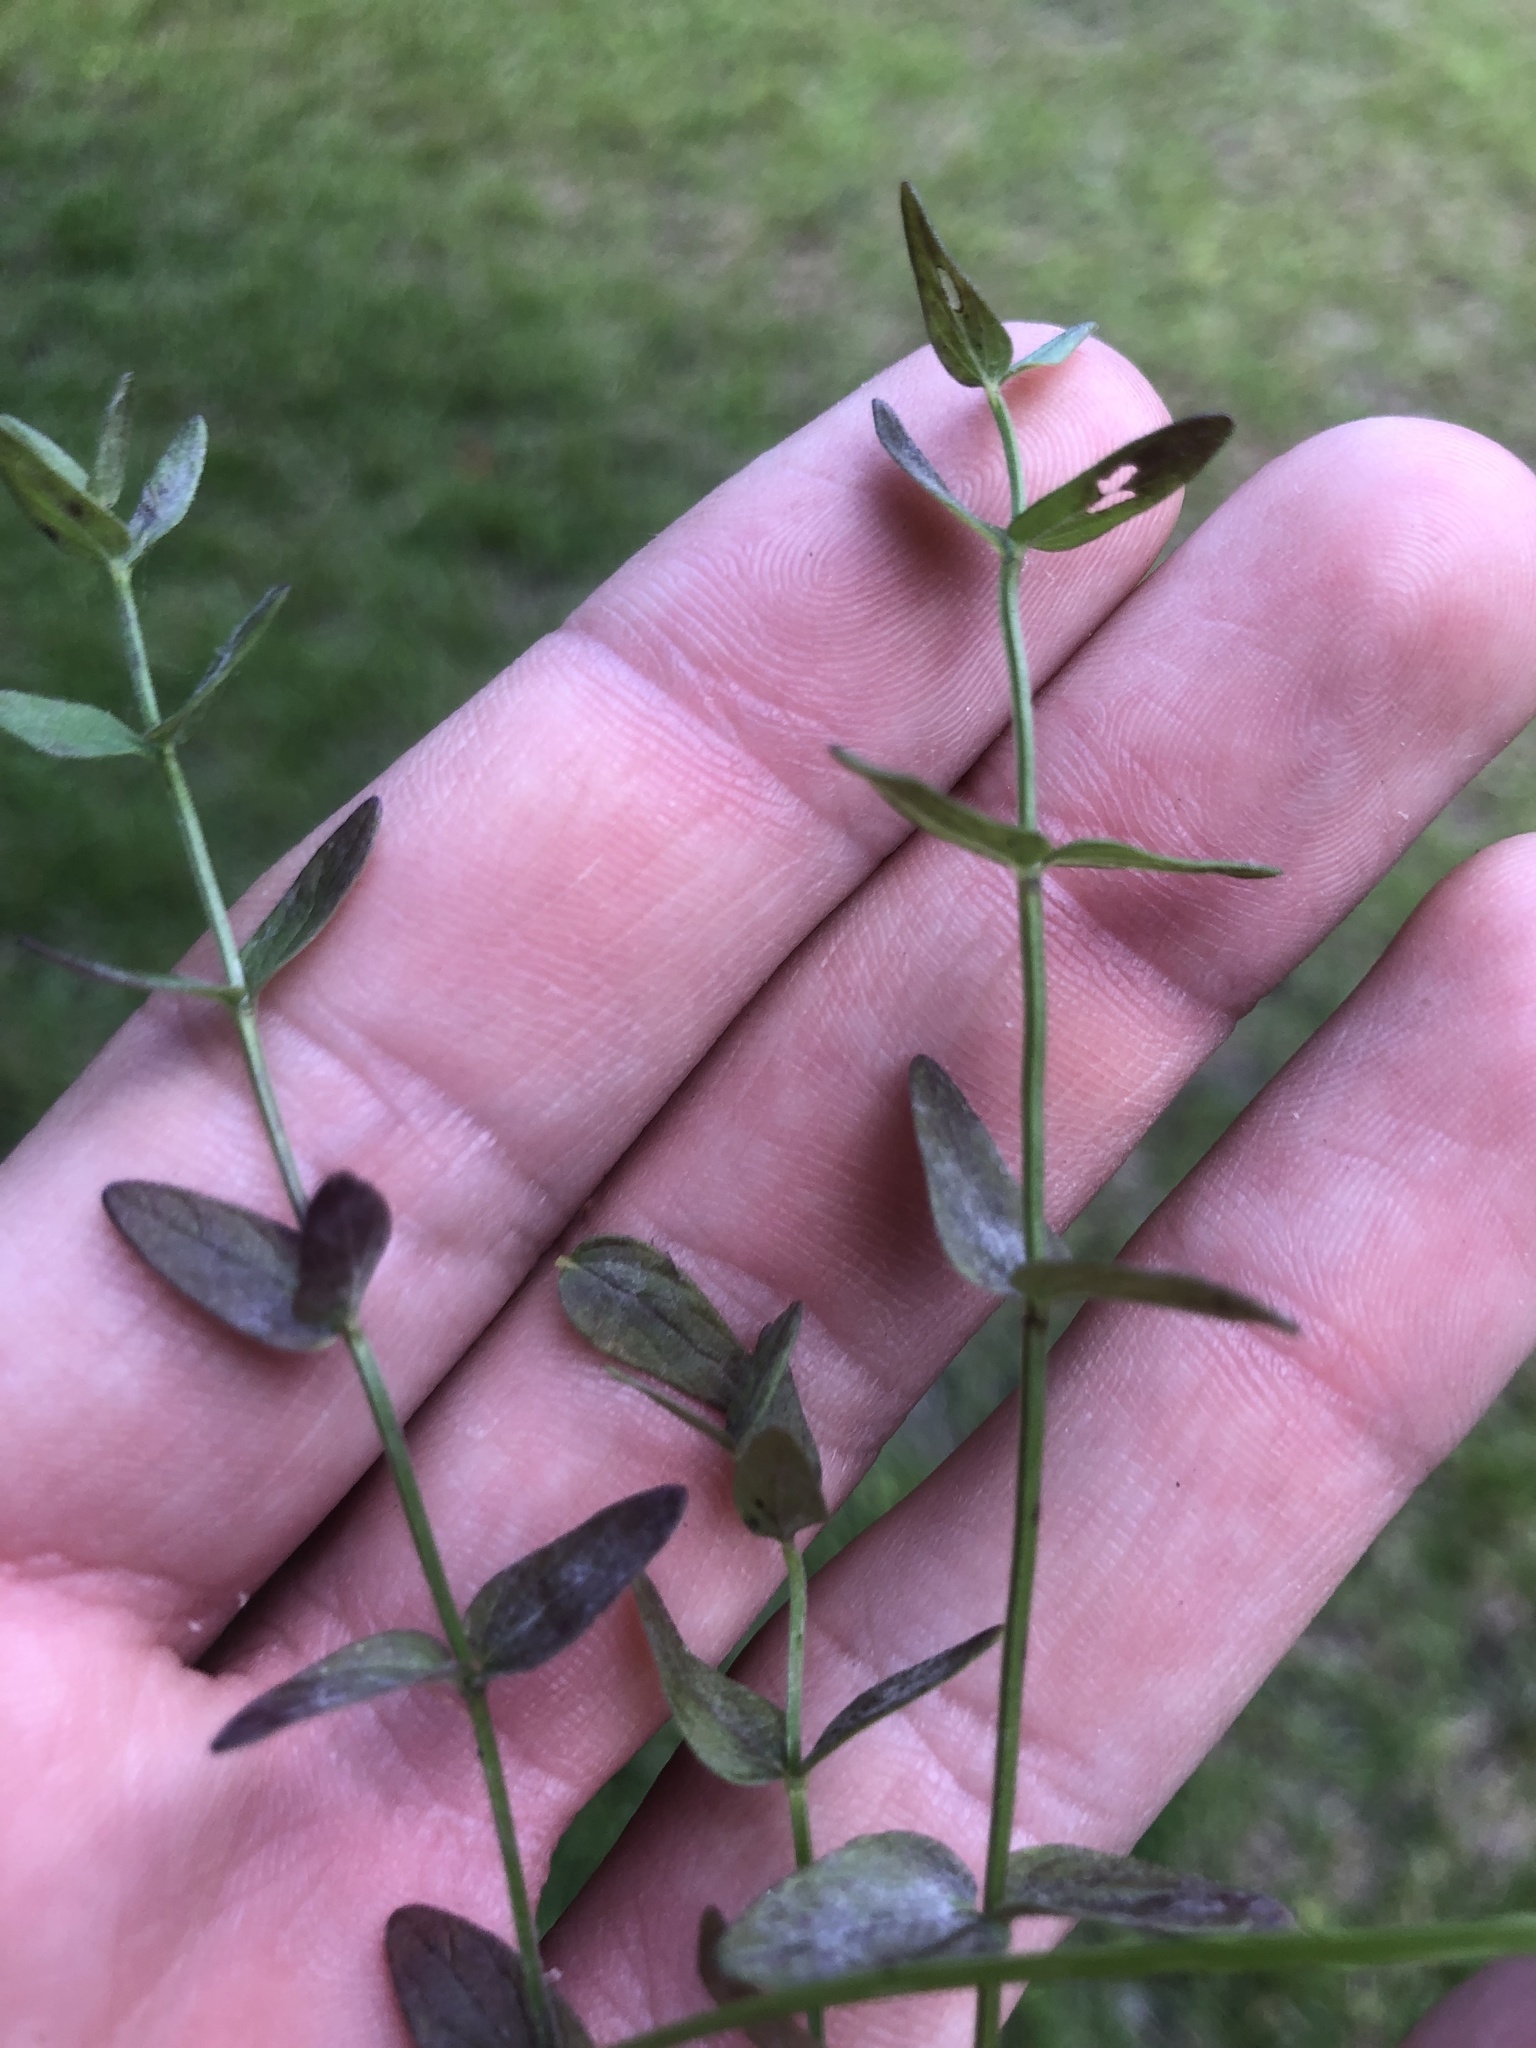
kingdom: Plantae
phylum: Tracheophyta
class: Magnoliopsida
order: Lamiales
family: Lamiaceae
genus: Scutellaria
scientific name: Scutellaria parvula
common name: Little scullcap
